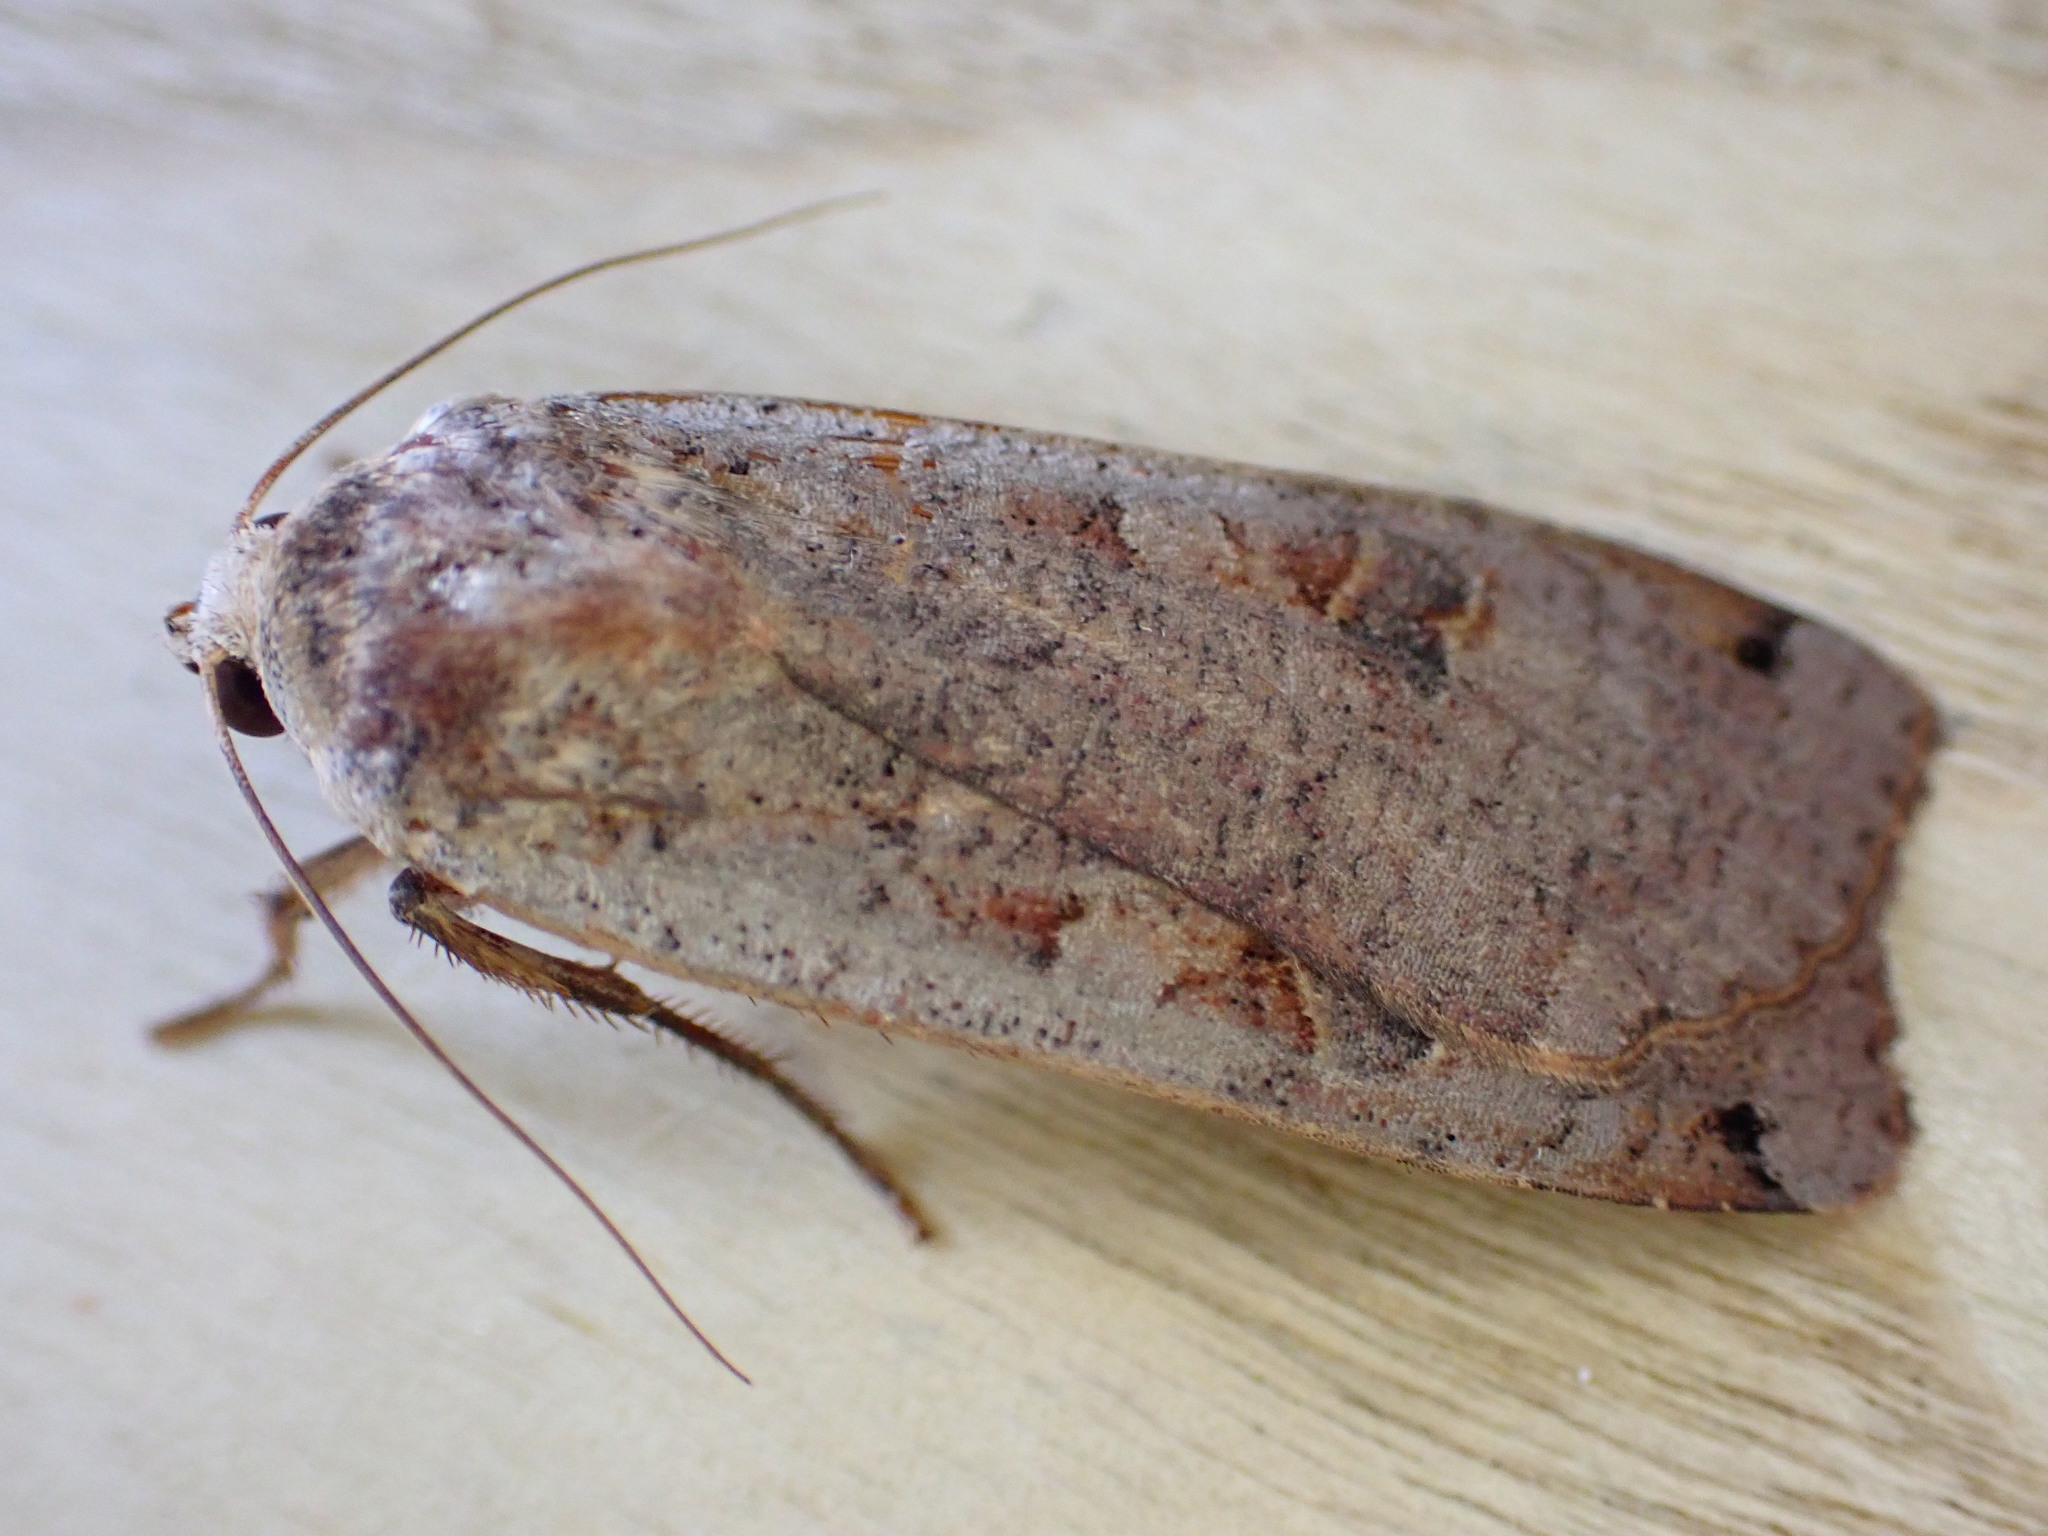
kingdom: Animalia
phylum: Arthropoda
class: Insecta
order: Lepidoptera
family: Noctuidae
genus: Noctua
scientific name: Noctua pronuba
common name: Large yellow underwing
